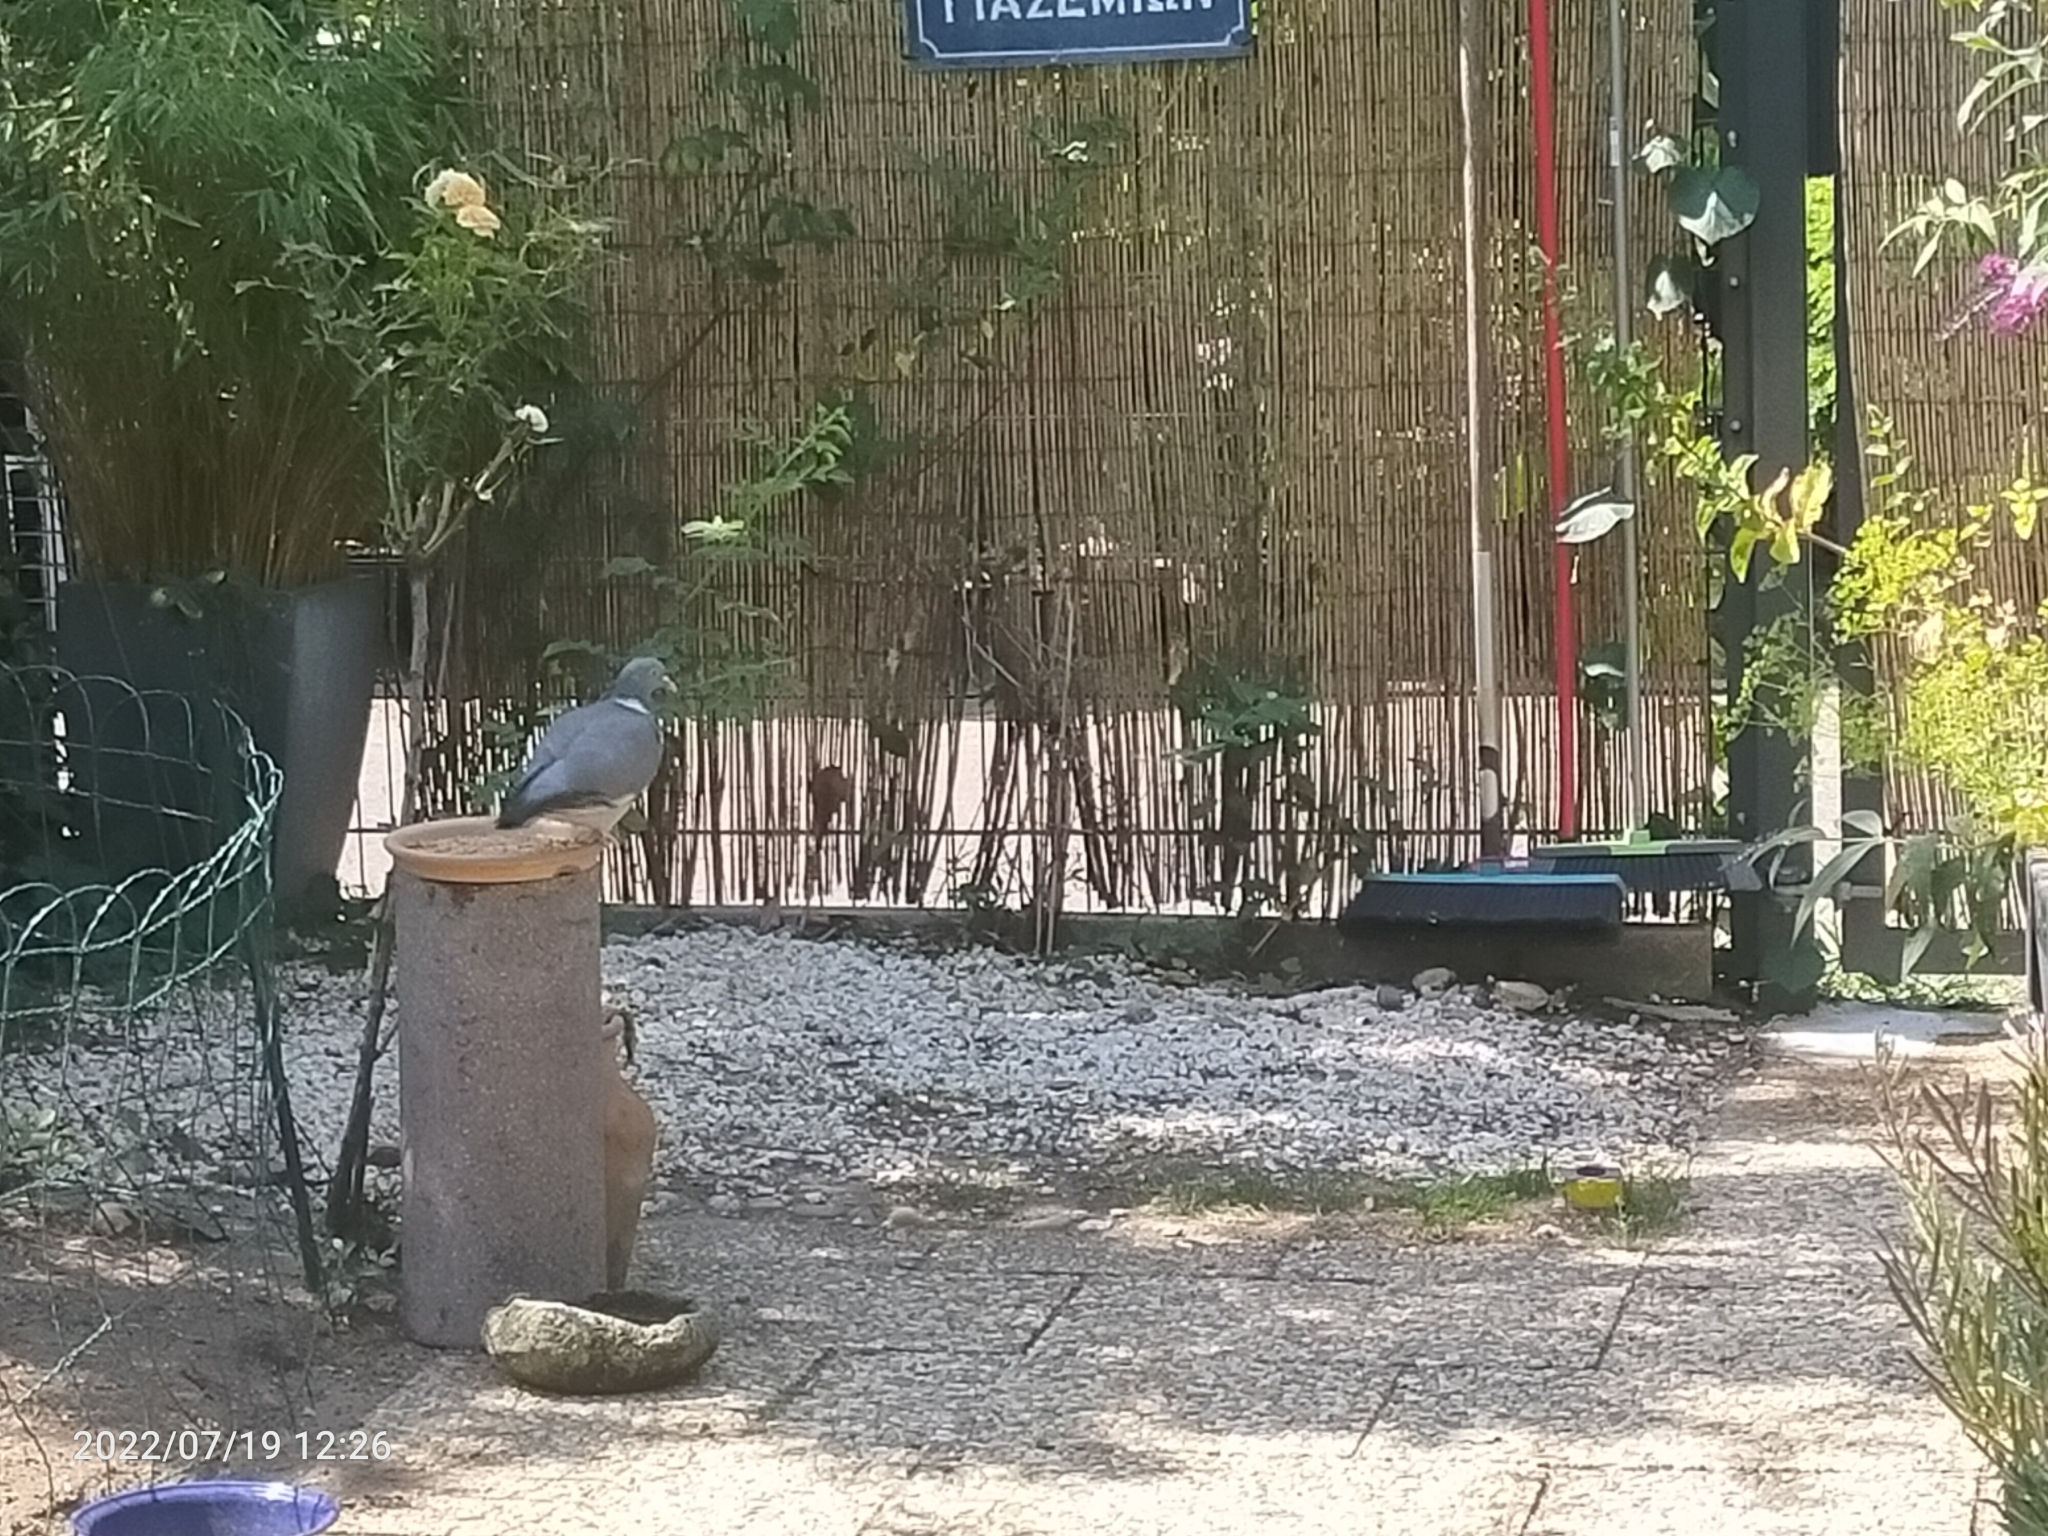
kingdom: Animalia
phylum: Chordata
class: Aves
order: Columbiformes
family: Columbidae
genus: Columba
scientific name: Columba palumbus
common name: Common wood pigeon
